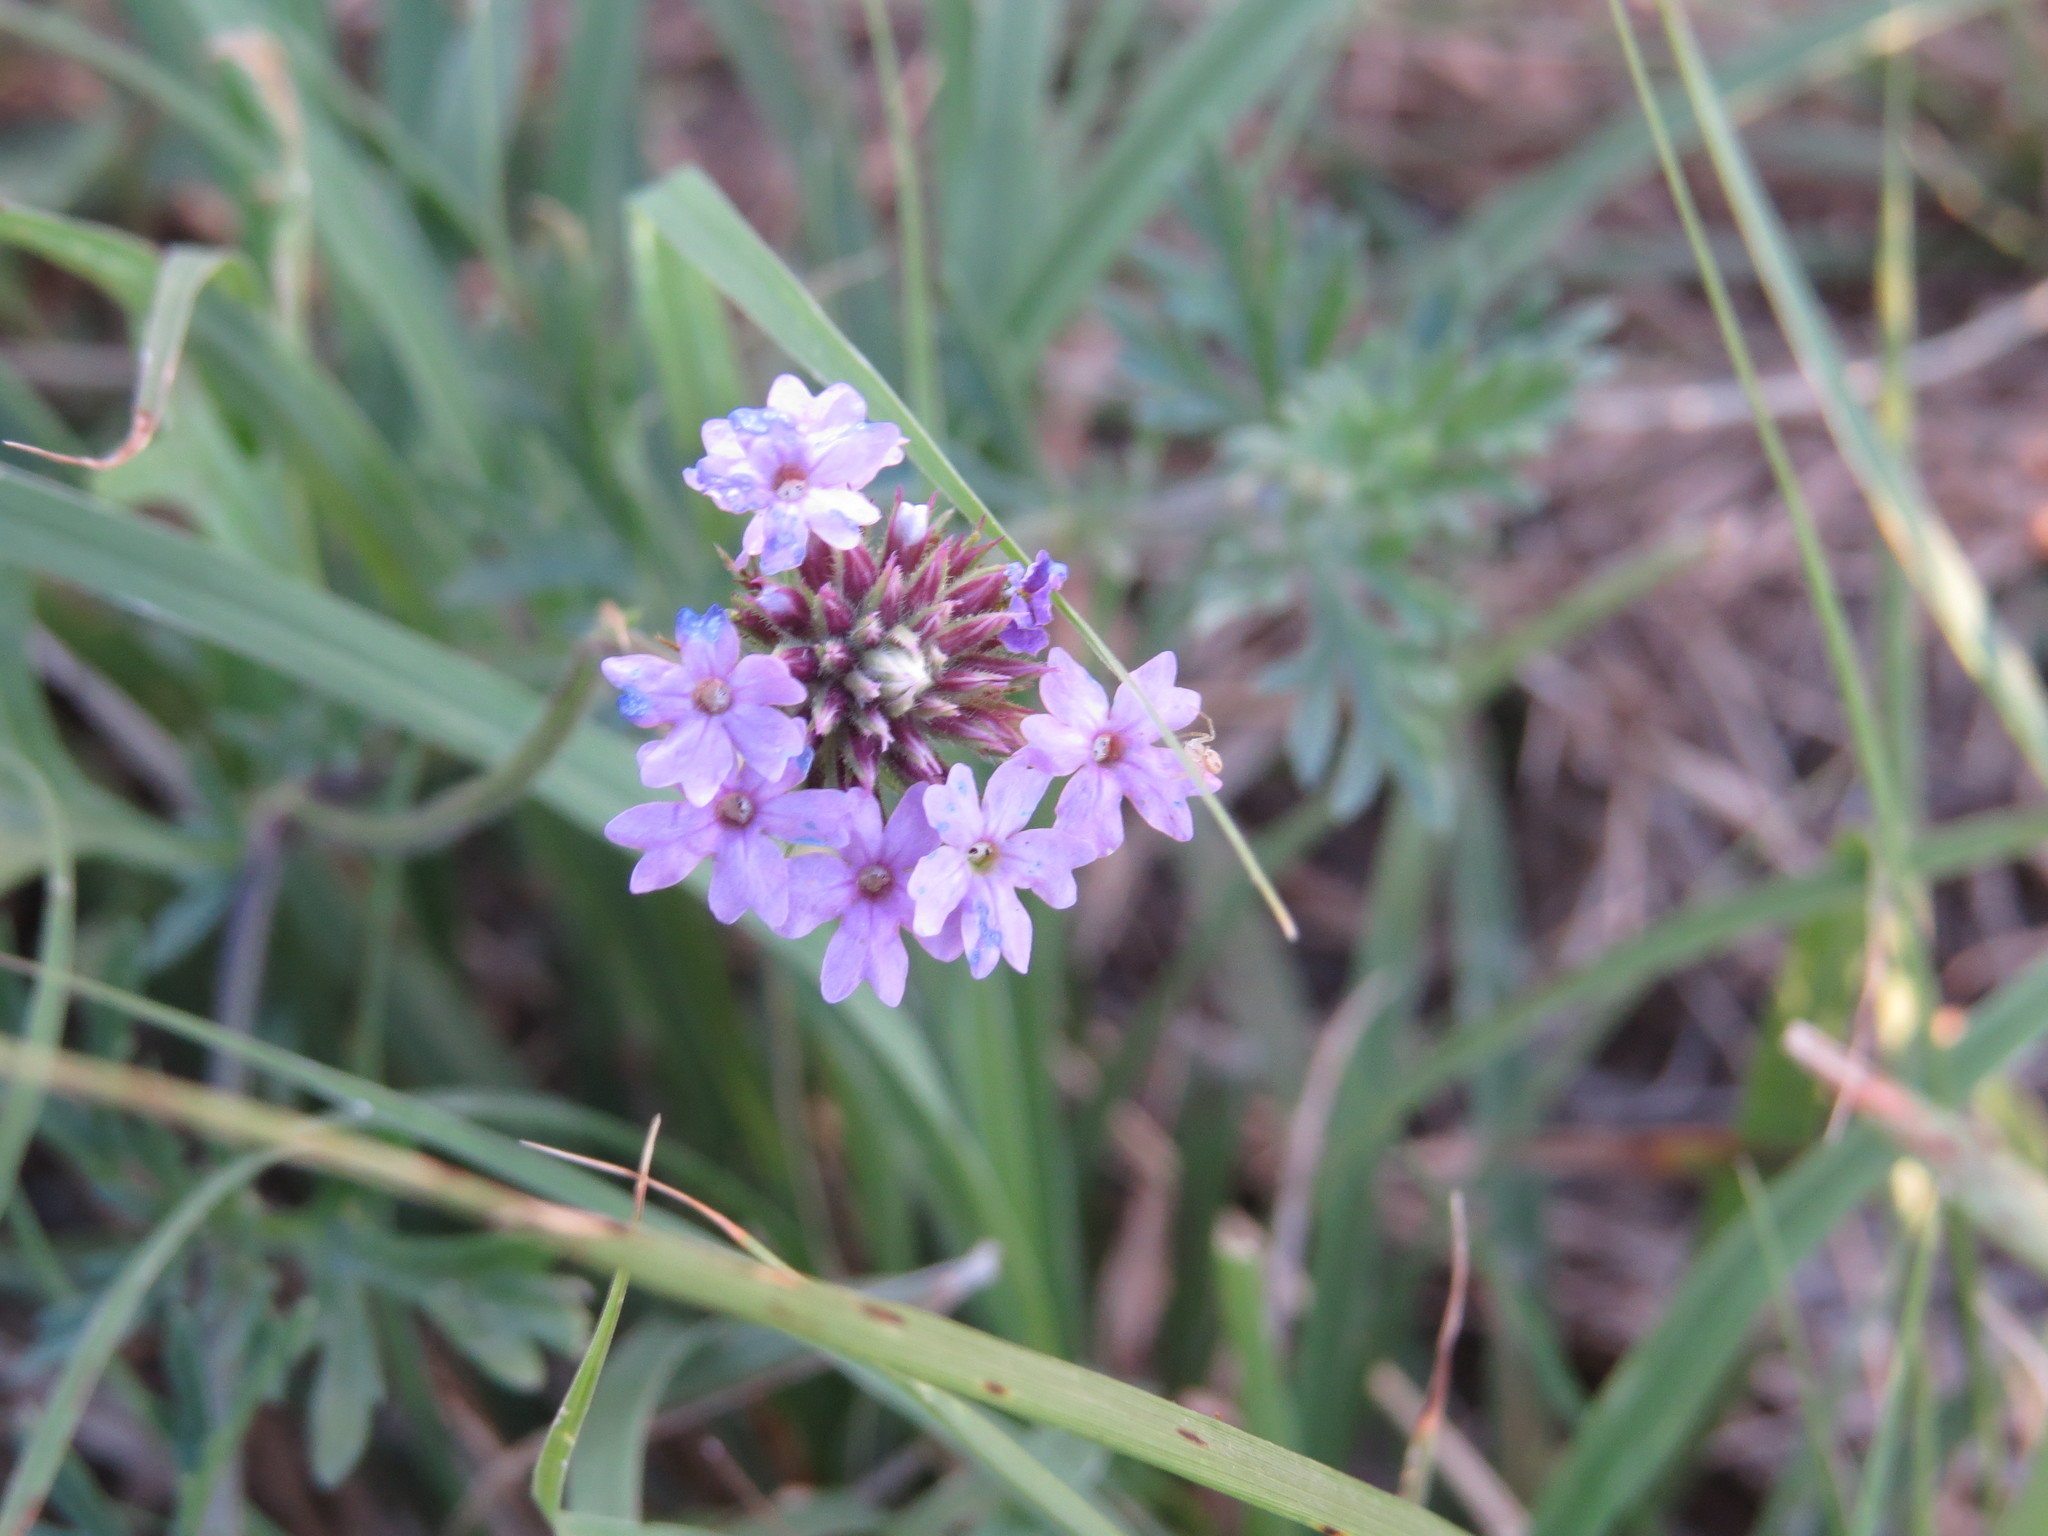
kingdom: Plantae
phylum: Tracheophyta
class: Magnoliopsida
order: Lamiales
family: Verbenaceae
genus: Verbena
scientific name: Verbena dissecta
